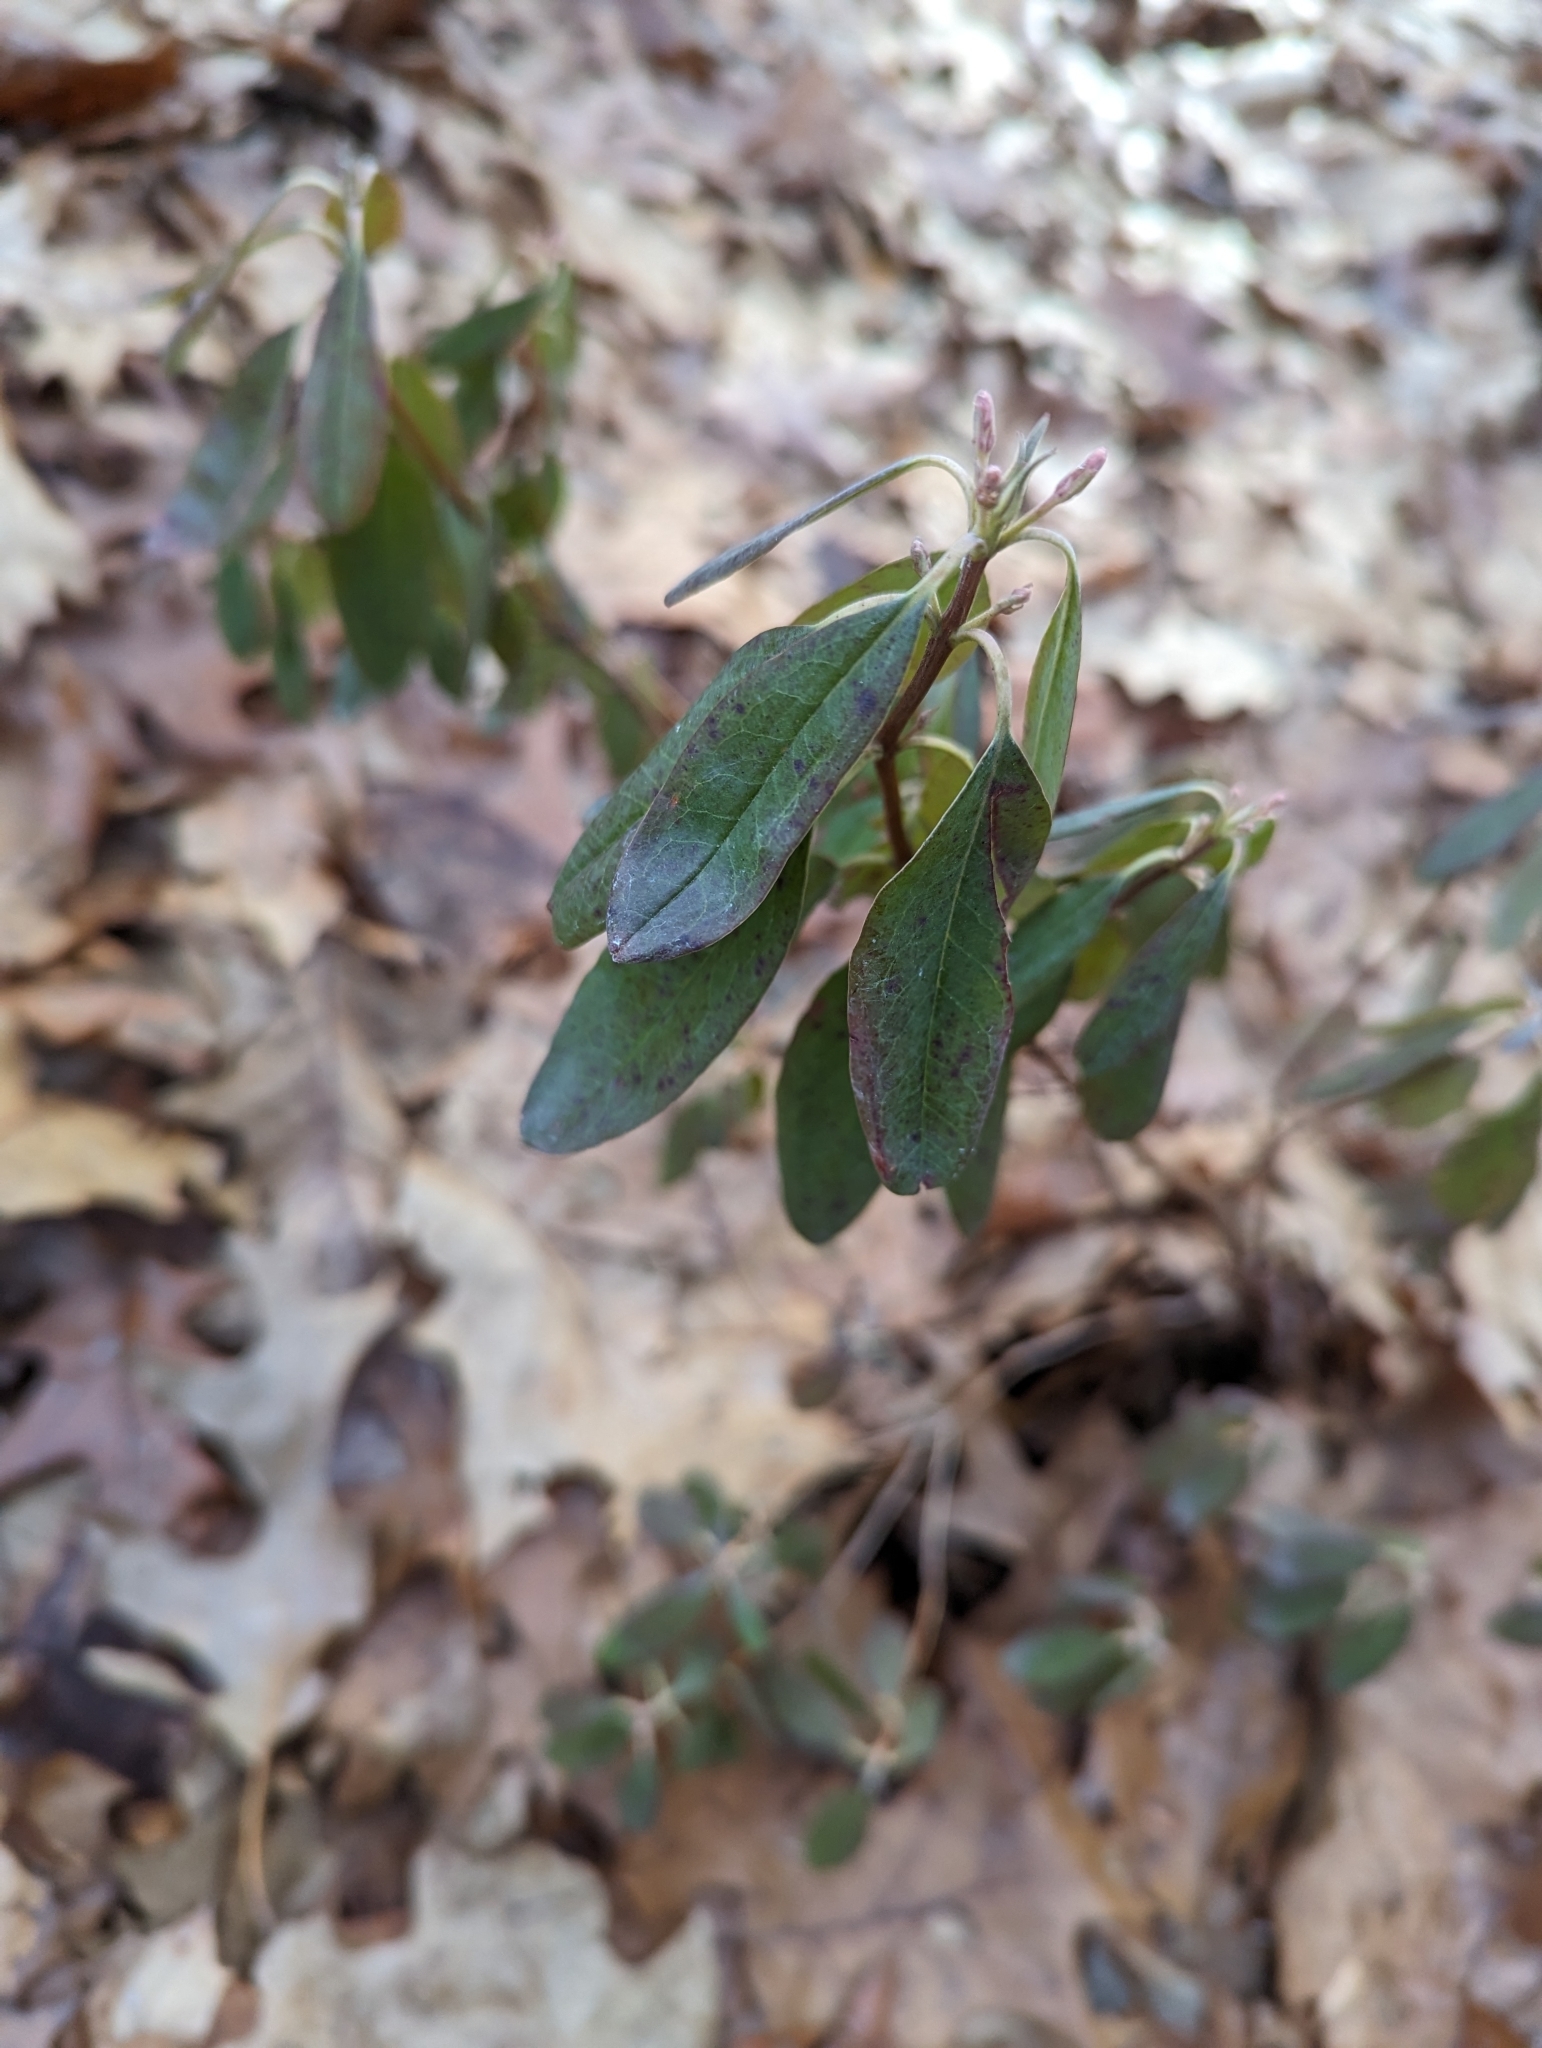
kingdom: Plantae
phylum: Tracheophyta
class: Magnoliopsida
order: Ericales
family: Ericaceae
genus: Kalmia
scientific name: Kalmia angustifolia
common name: Sheep-laurel
